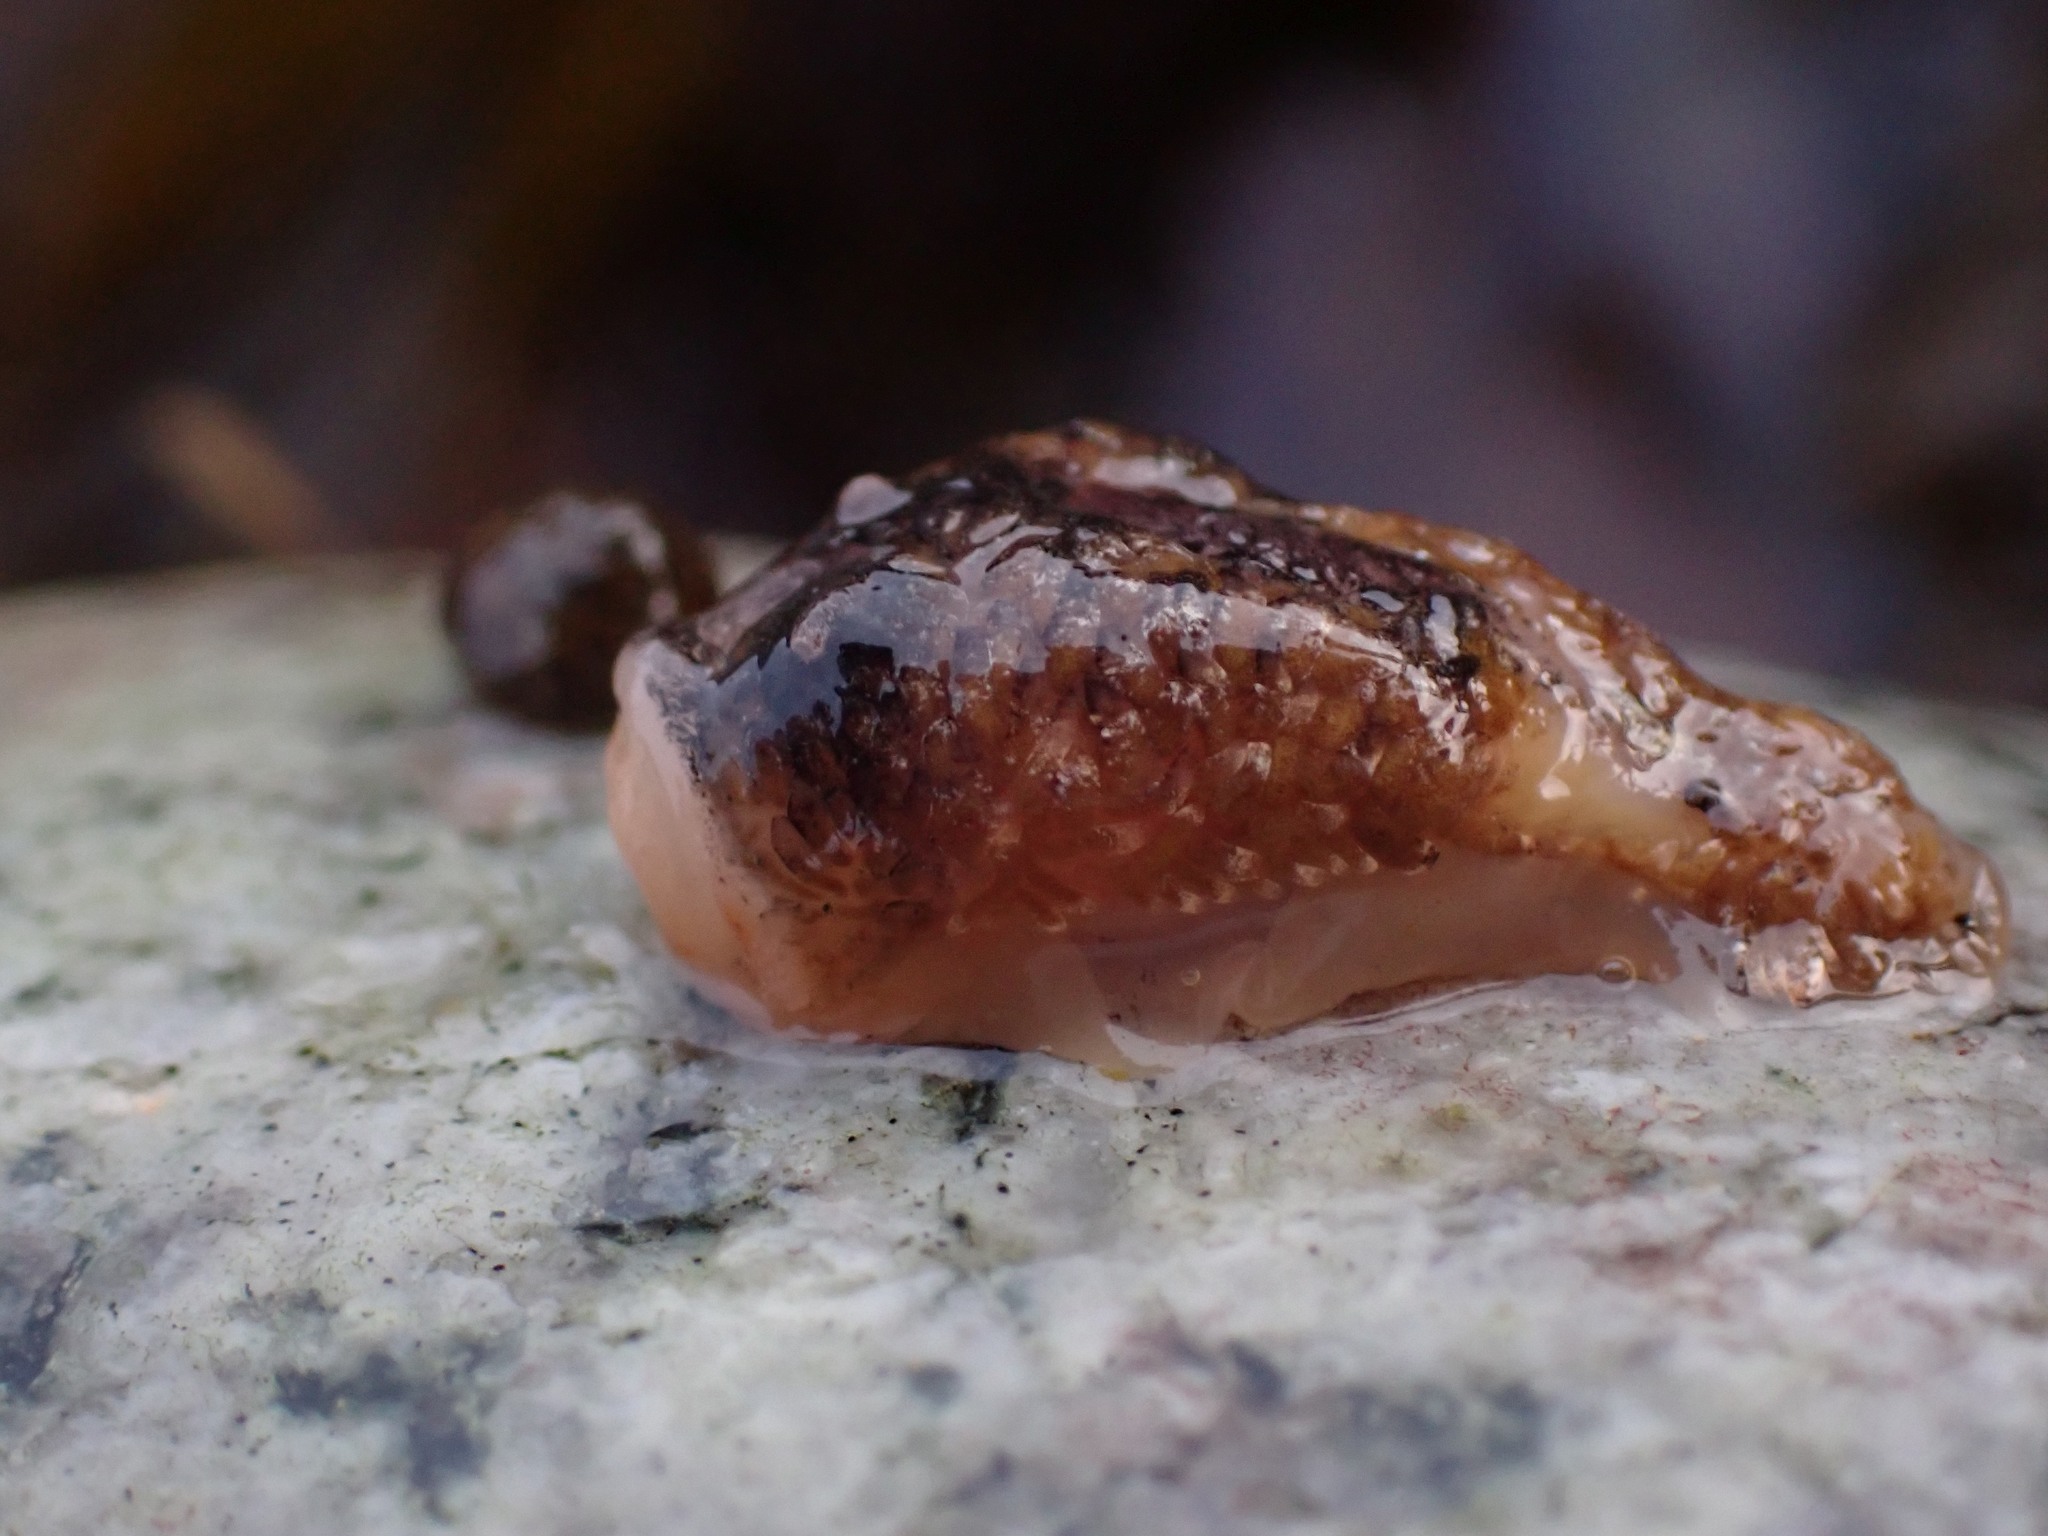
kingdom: Animalia
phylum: Mollusca
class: Gastropoda
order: Nudibranchia
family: Onchidorididae
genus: Onchidoris
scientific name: Onchidoris bilamellata
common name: Barnacle-eating onchidoris
